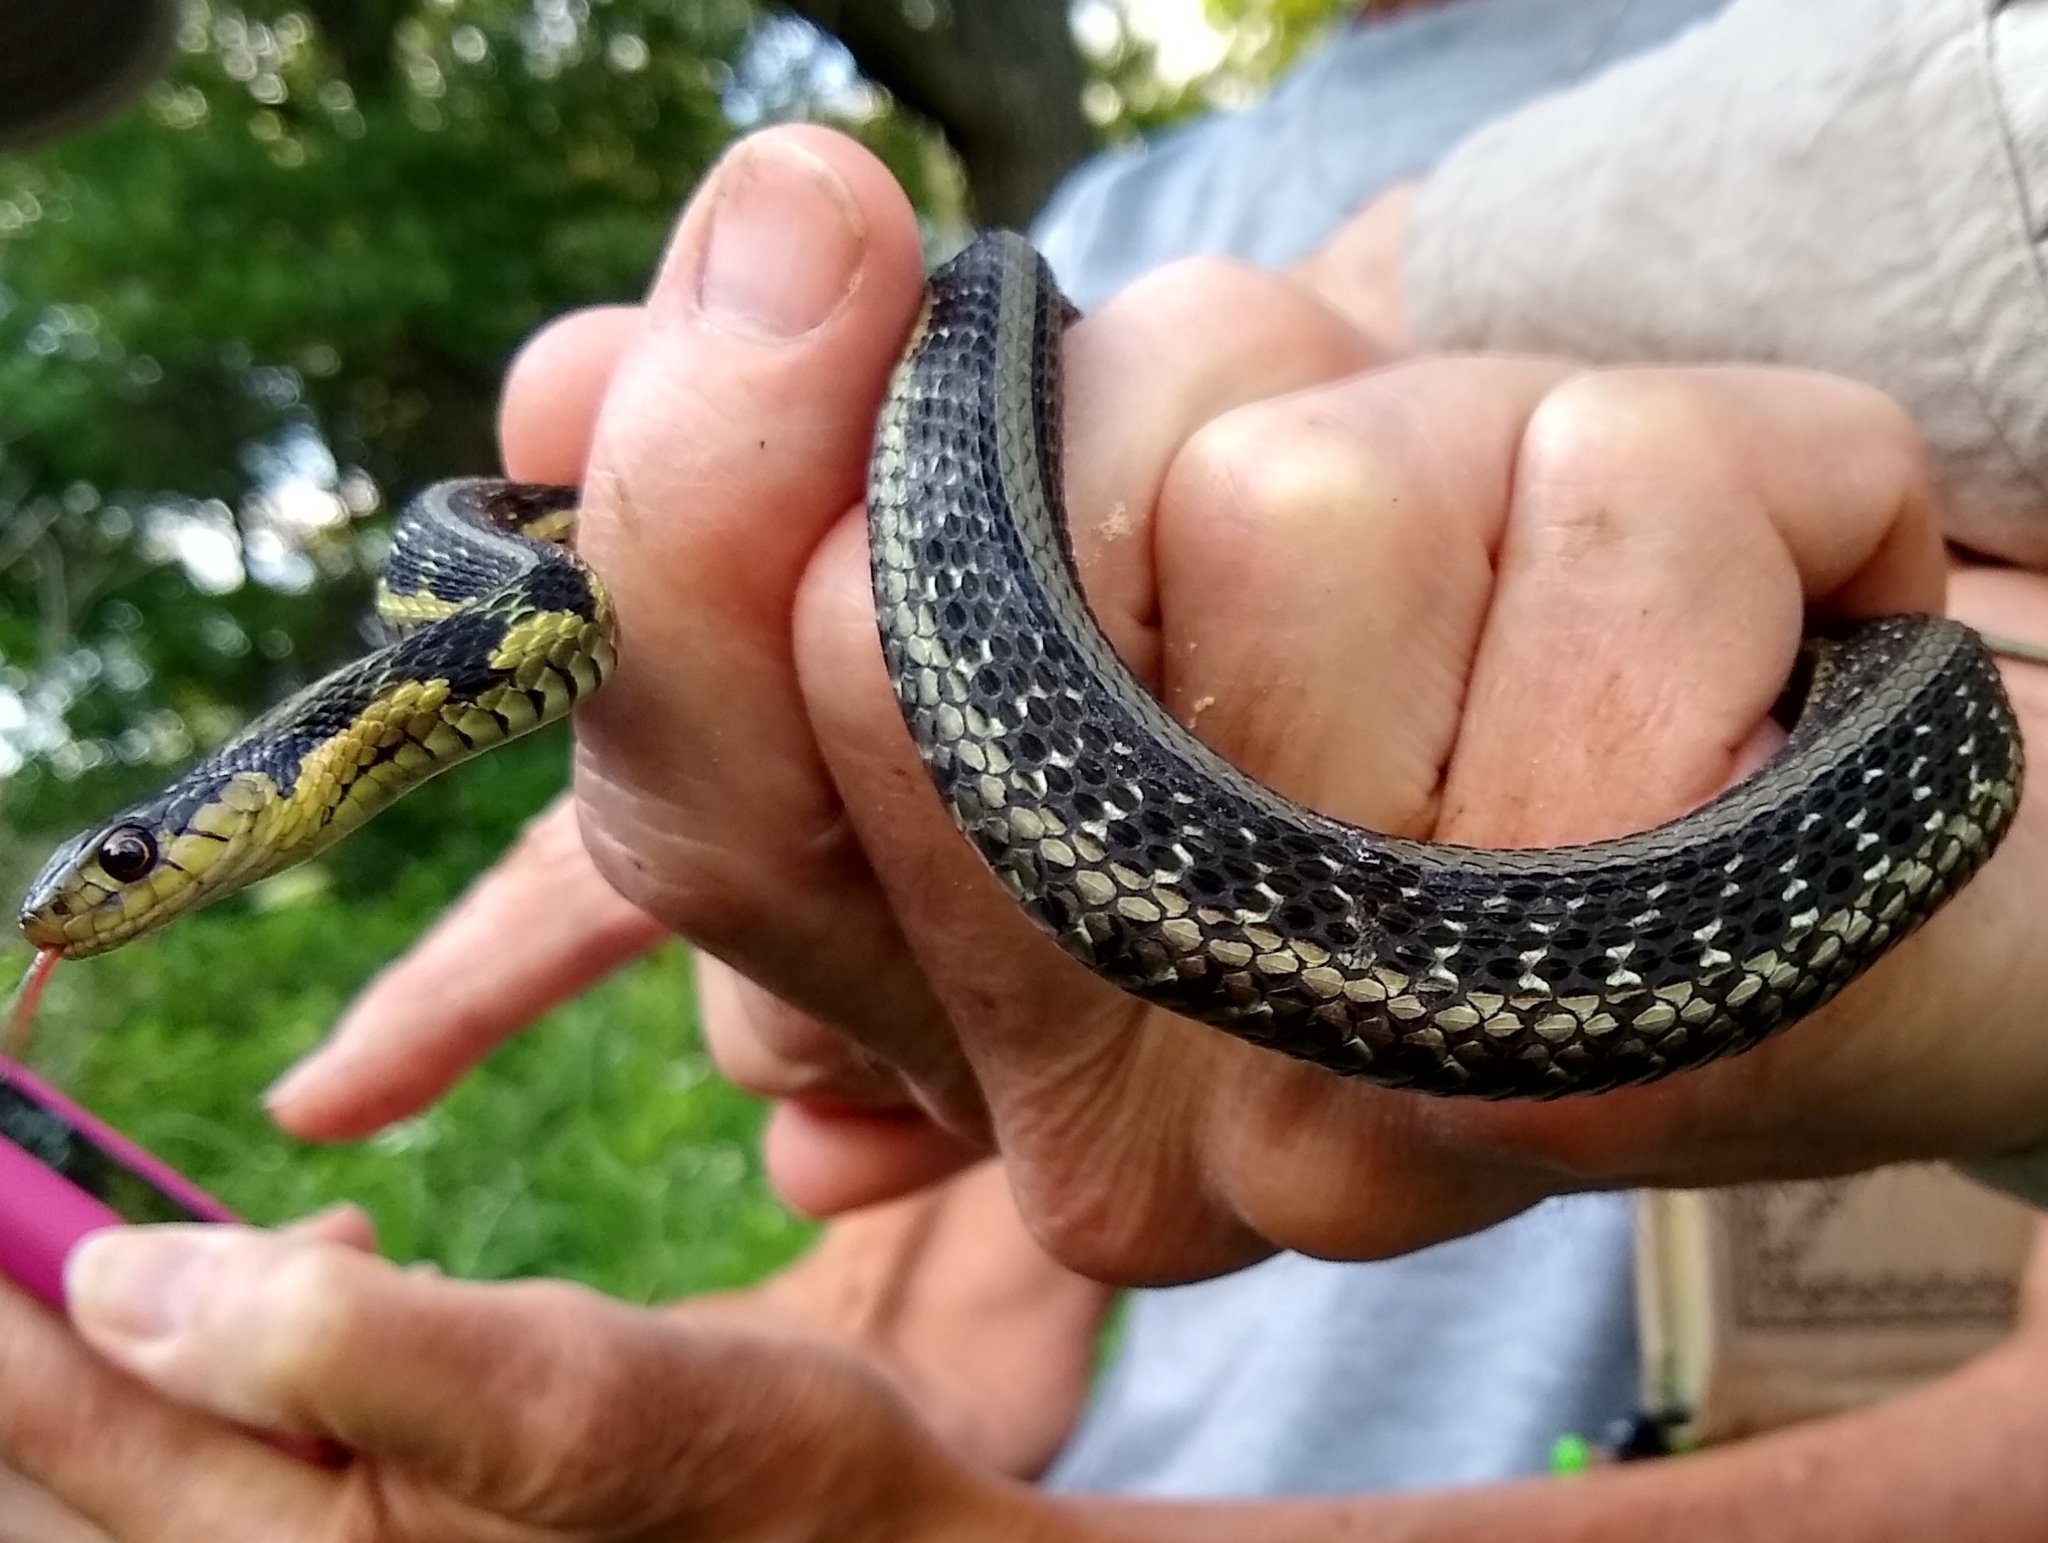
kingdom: Animalia
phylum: Chordata
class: Squamata
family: Colubridae
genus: Thamnophis
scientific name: Thamnophis sirtalis
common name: Common garter snake
